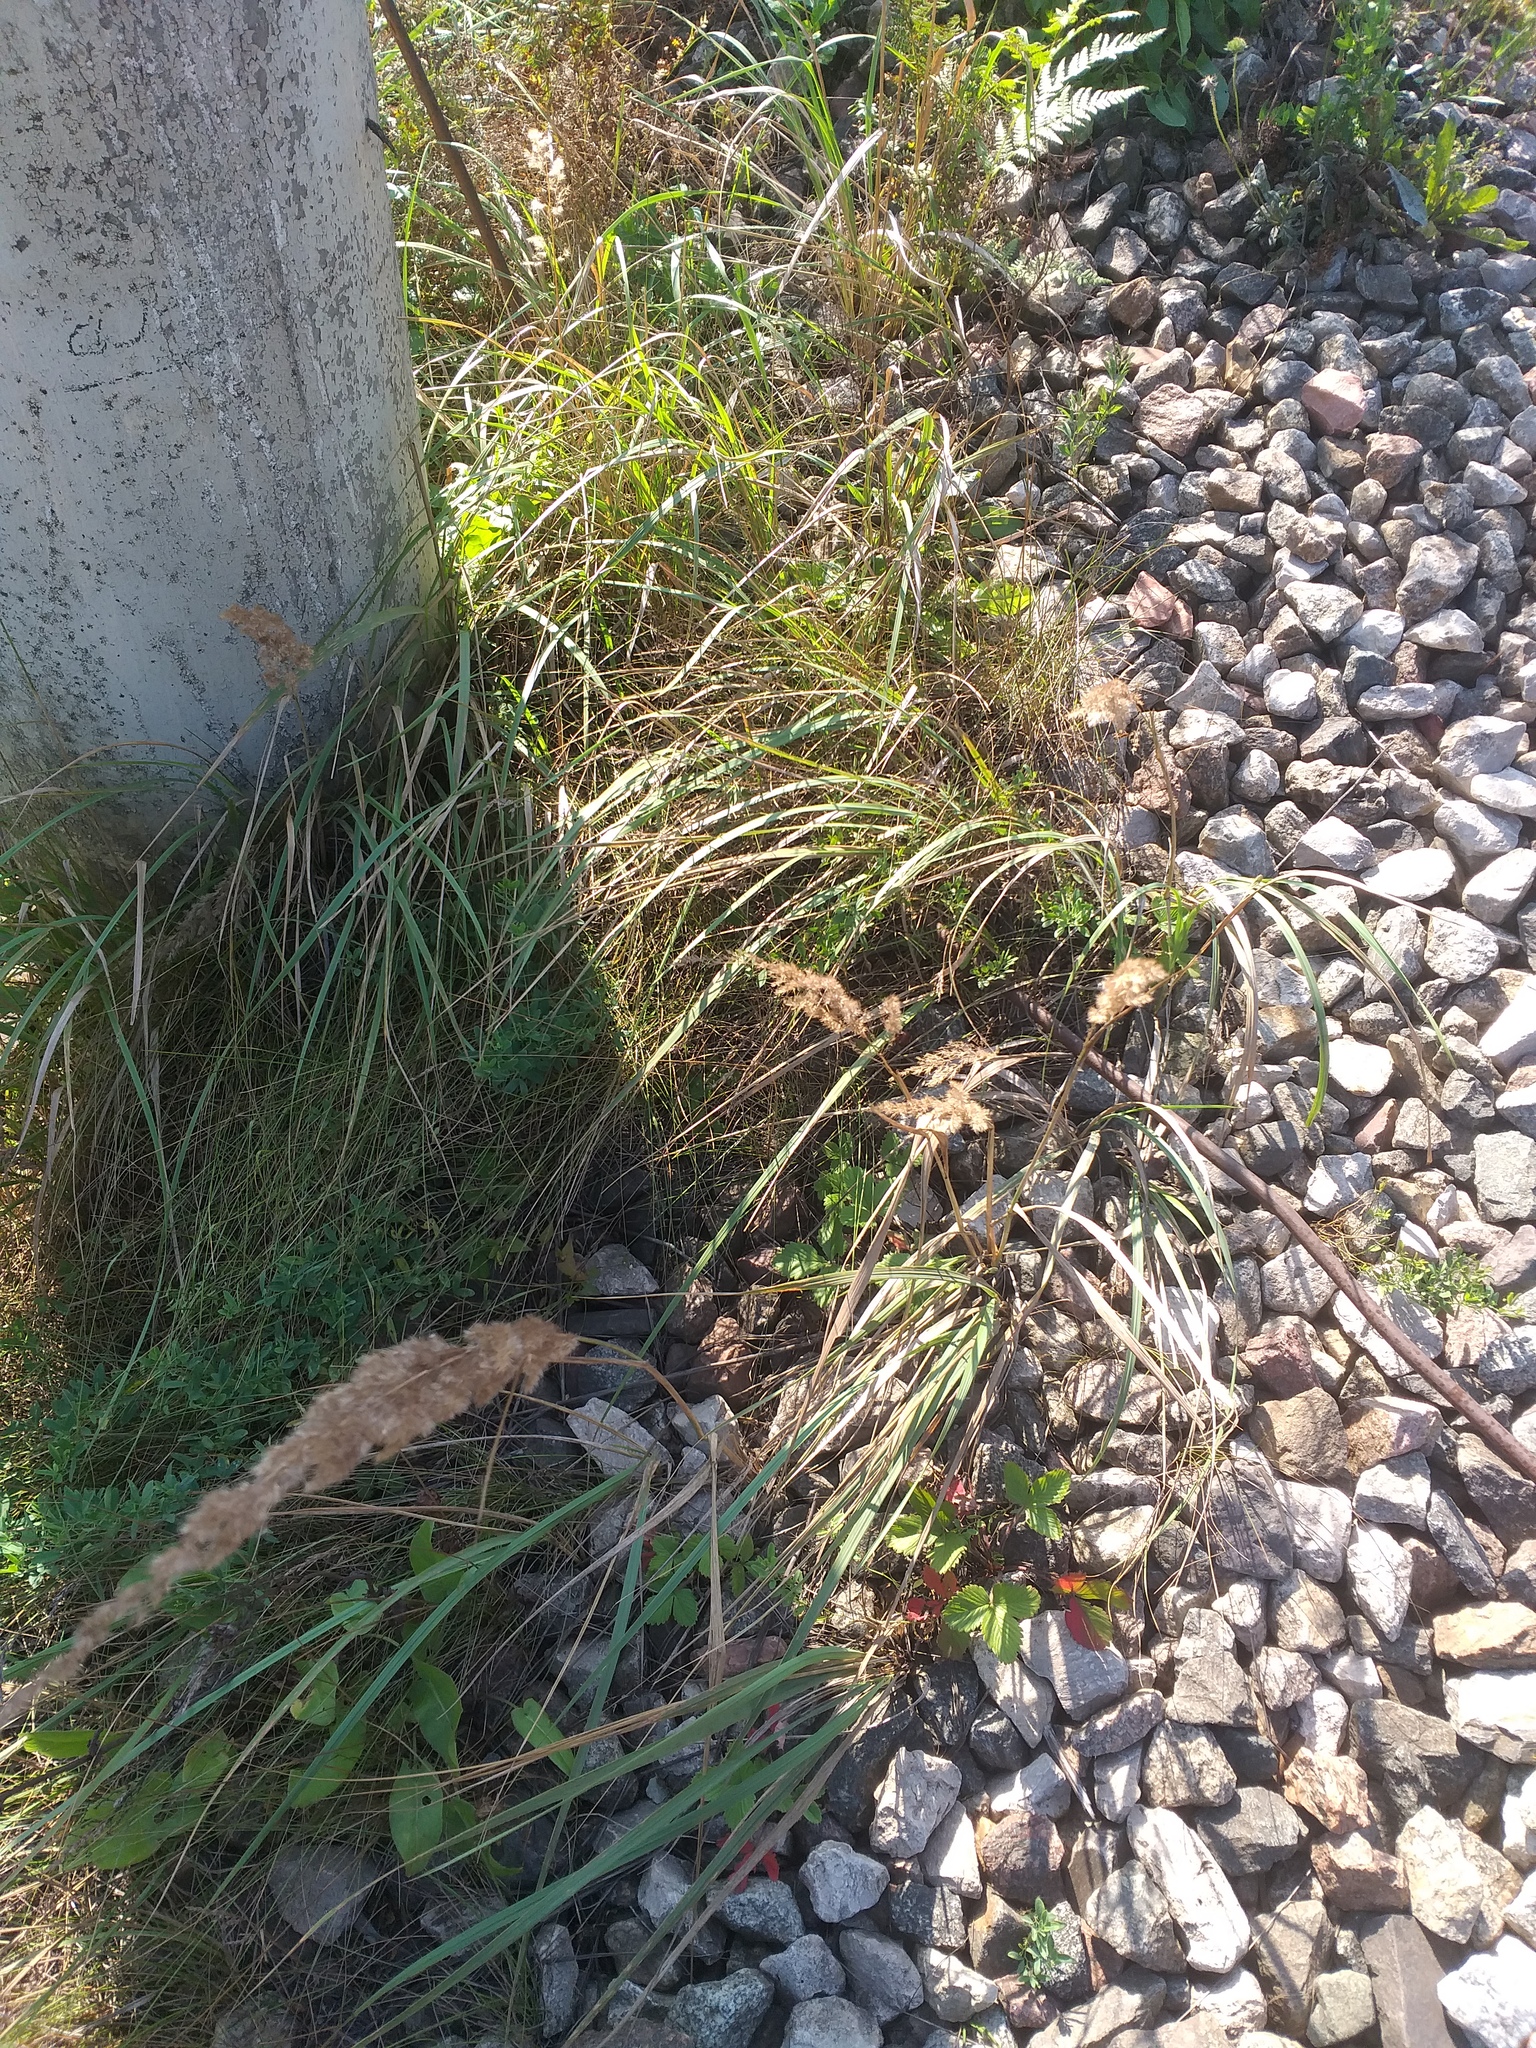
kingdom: Plantae
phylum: Tracheophyta
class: Liliopsida
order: Poales
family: Poaceae
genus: Calamagrostis
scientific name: Calamagrostis epigejos
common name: Wood small-reed
